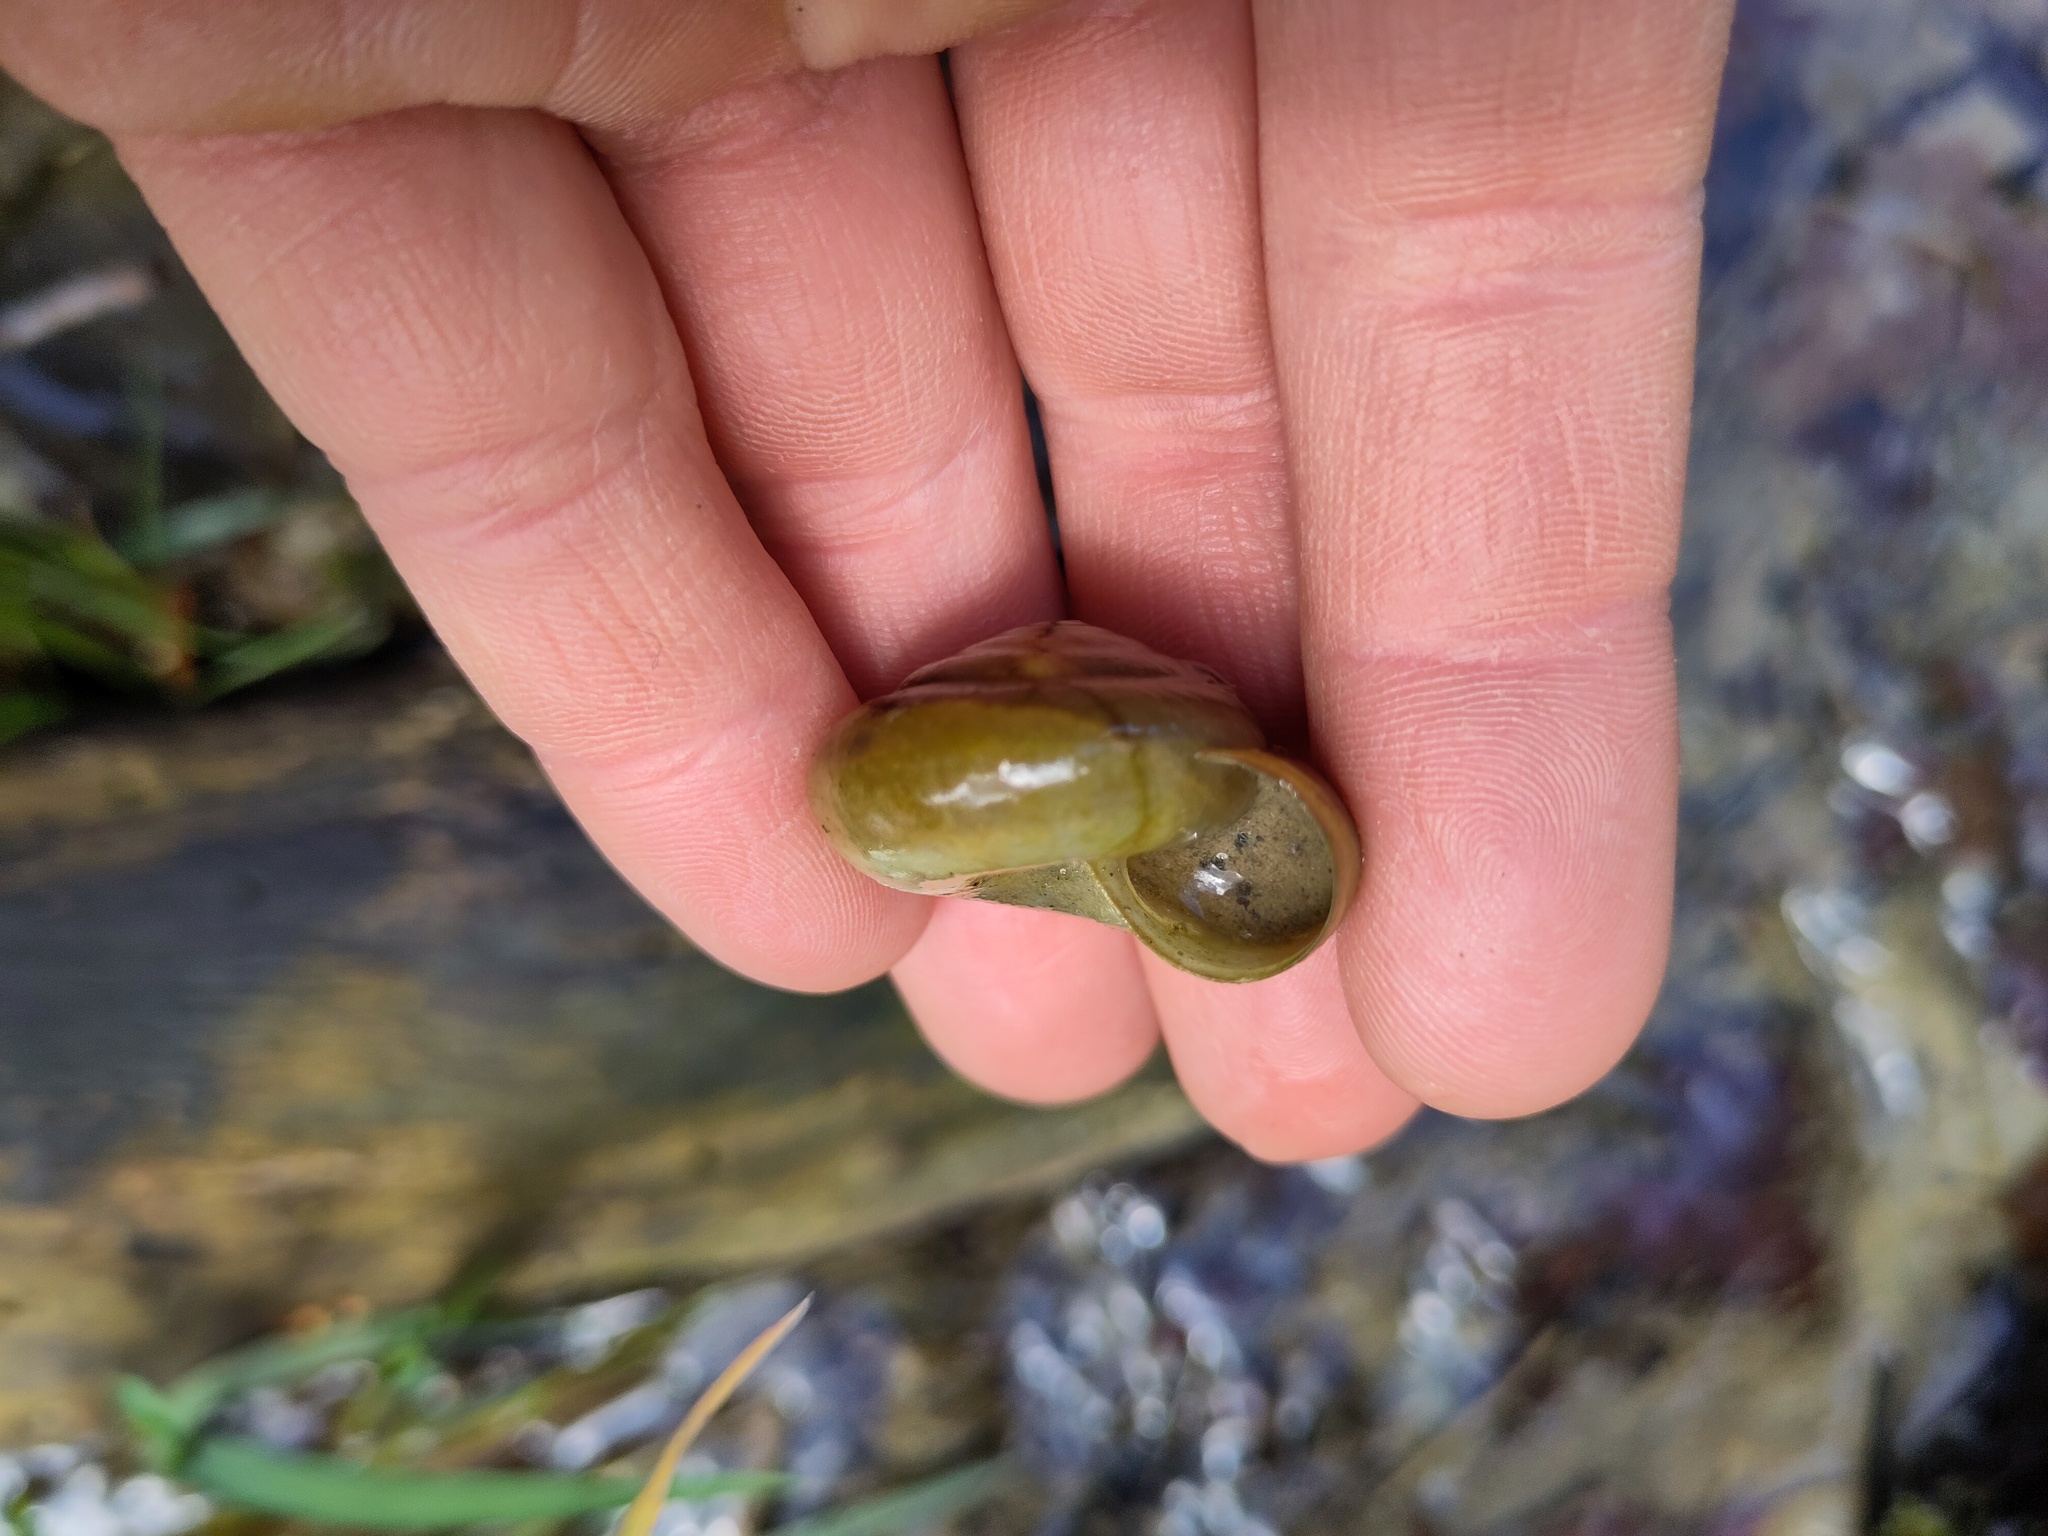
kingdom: Animalia
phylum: Mollusca
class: Gastropoda
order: Stylommatophora
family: Zonitidae
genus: Aegopis
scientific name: Aegopis verticillus
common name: Giant glass snail
